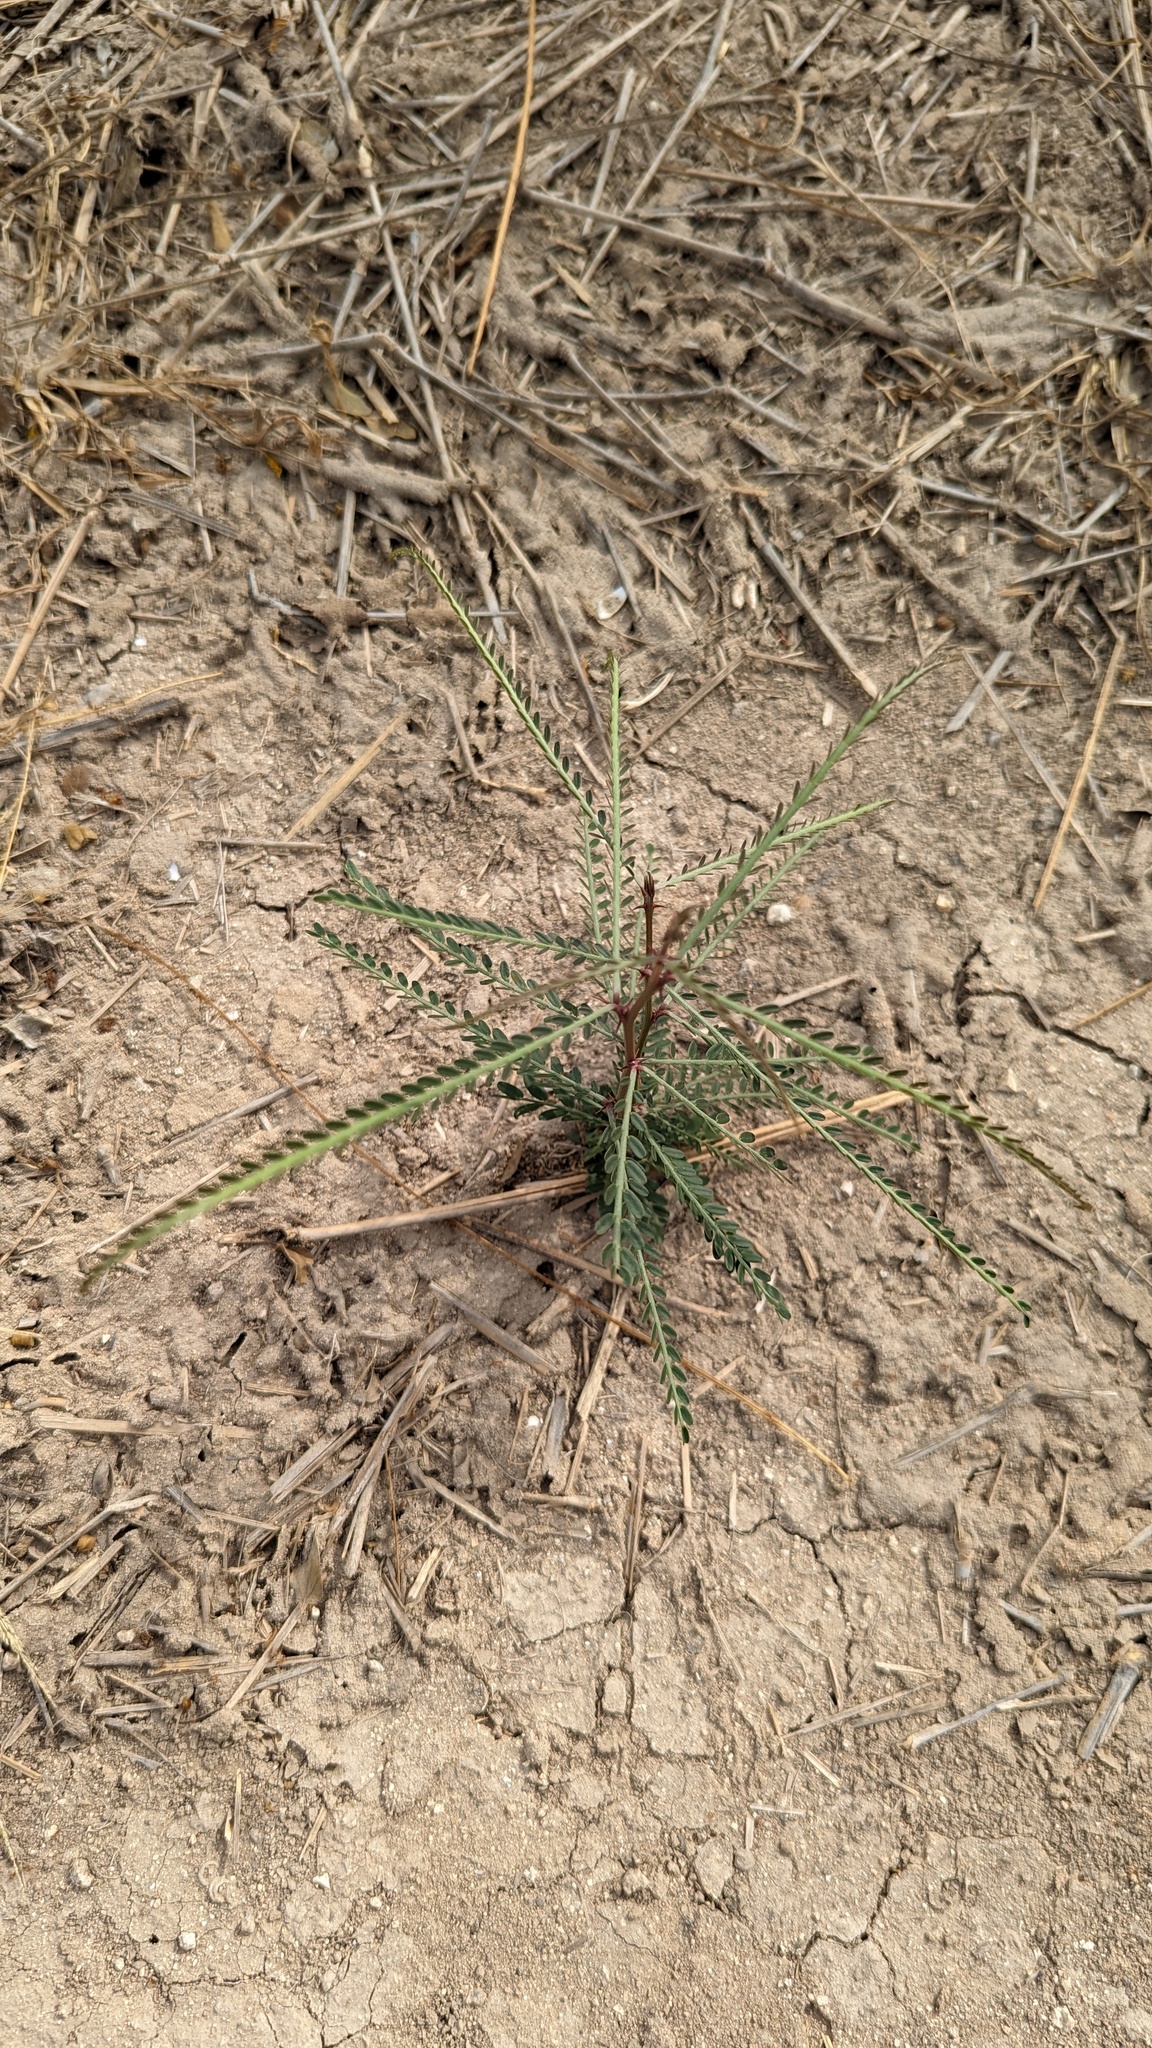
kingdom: Plantae
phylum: Tracheophyta
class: Magnoliopsida
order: Fabales
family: Fabaceae
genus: Parkinsonia
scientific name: Parkinsonia aculeata
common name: Jerusalem thorn
